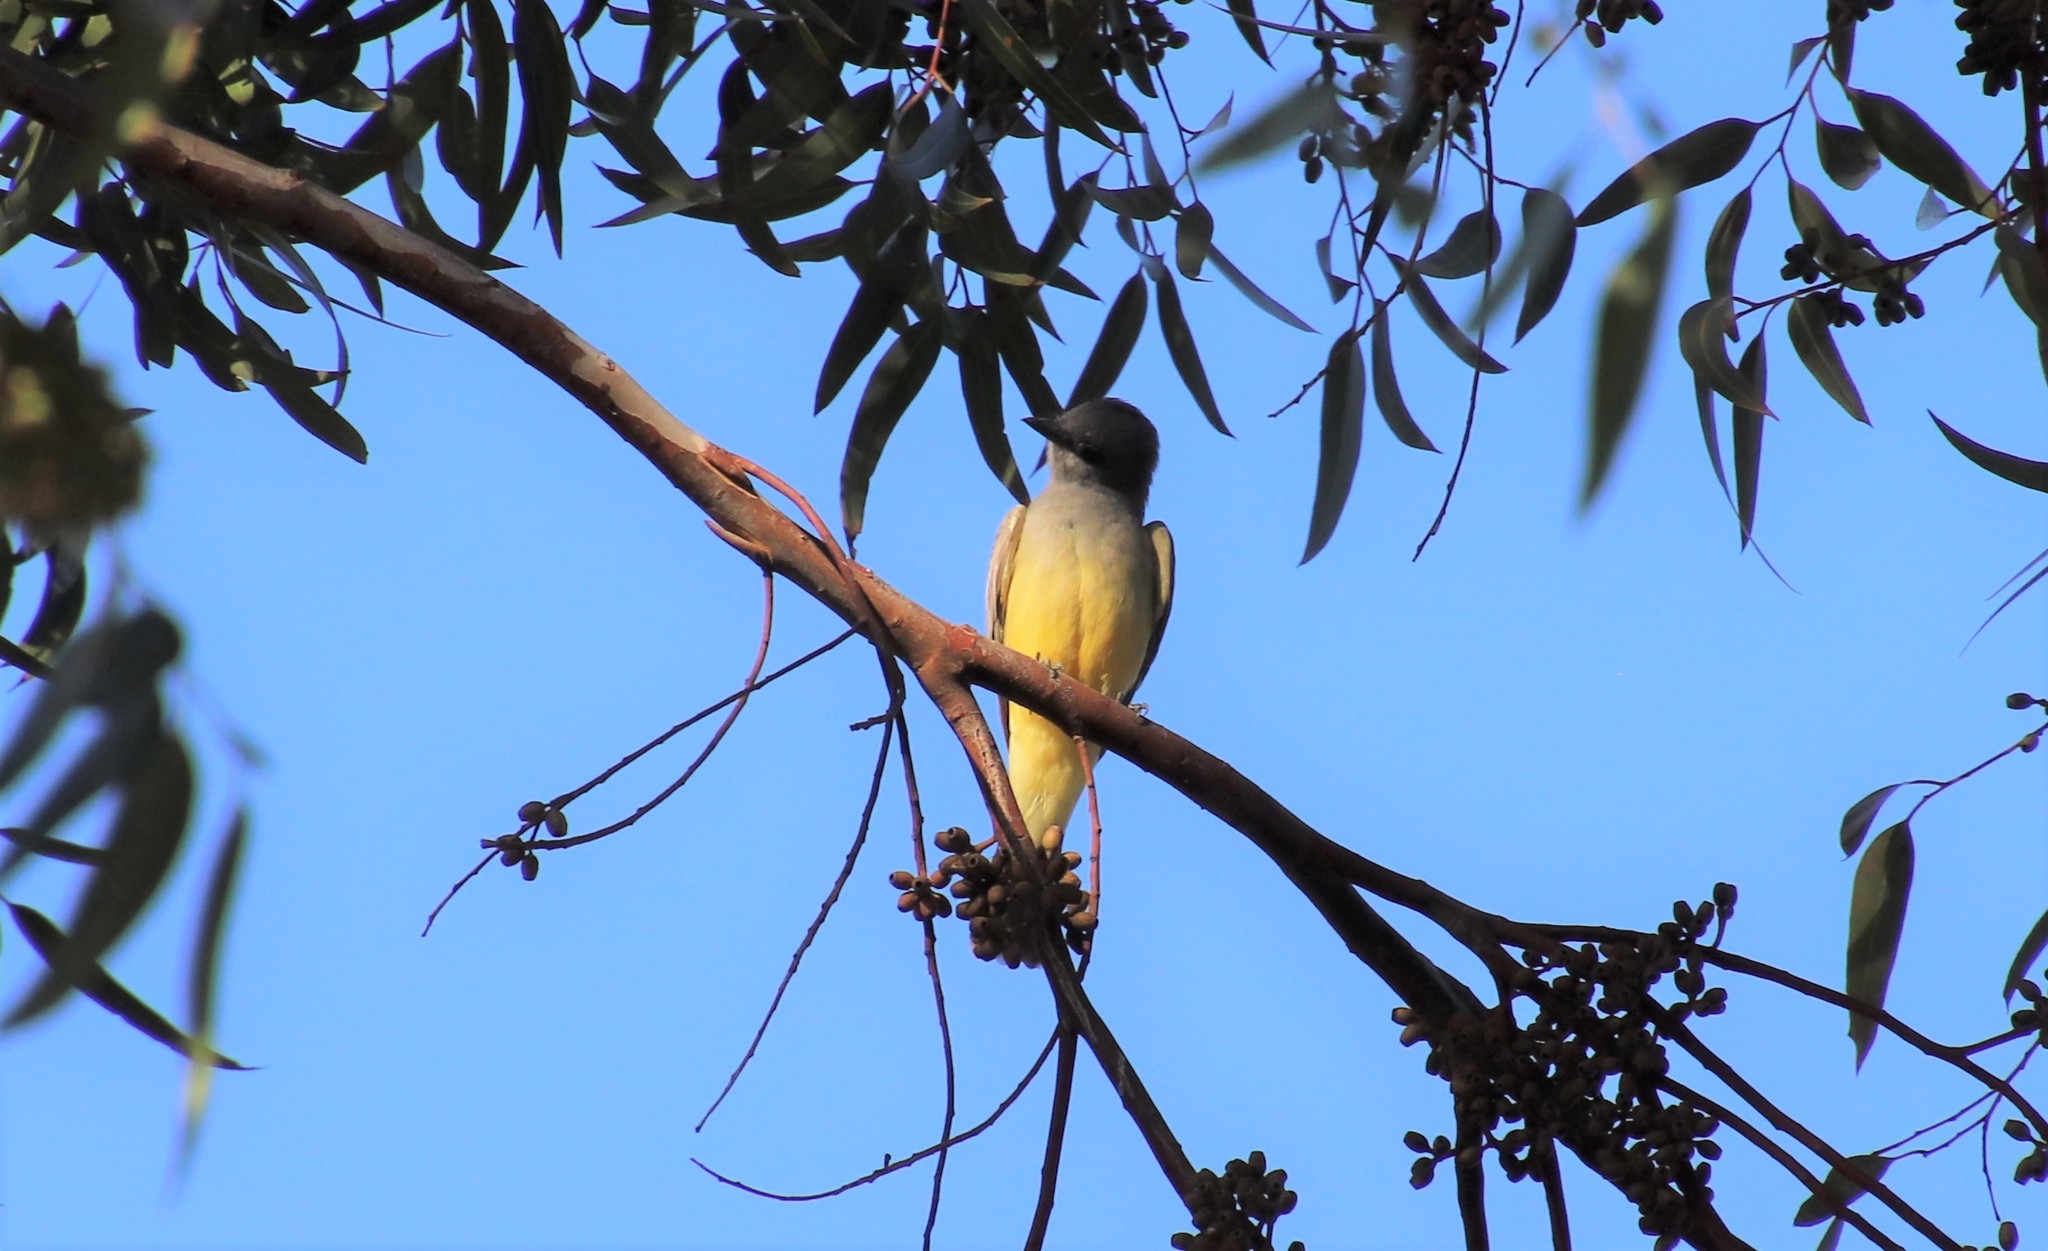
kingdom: Animalia
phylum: Chordata
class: Aves
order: Passeriformes
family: Tyrannidae
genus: Tyrannus
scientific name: Tyrannus vociferans
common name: Cassin's kingbird
